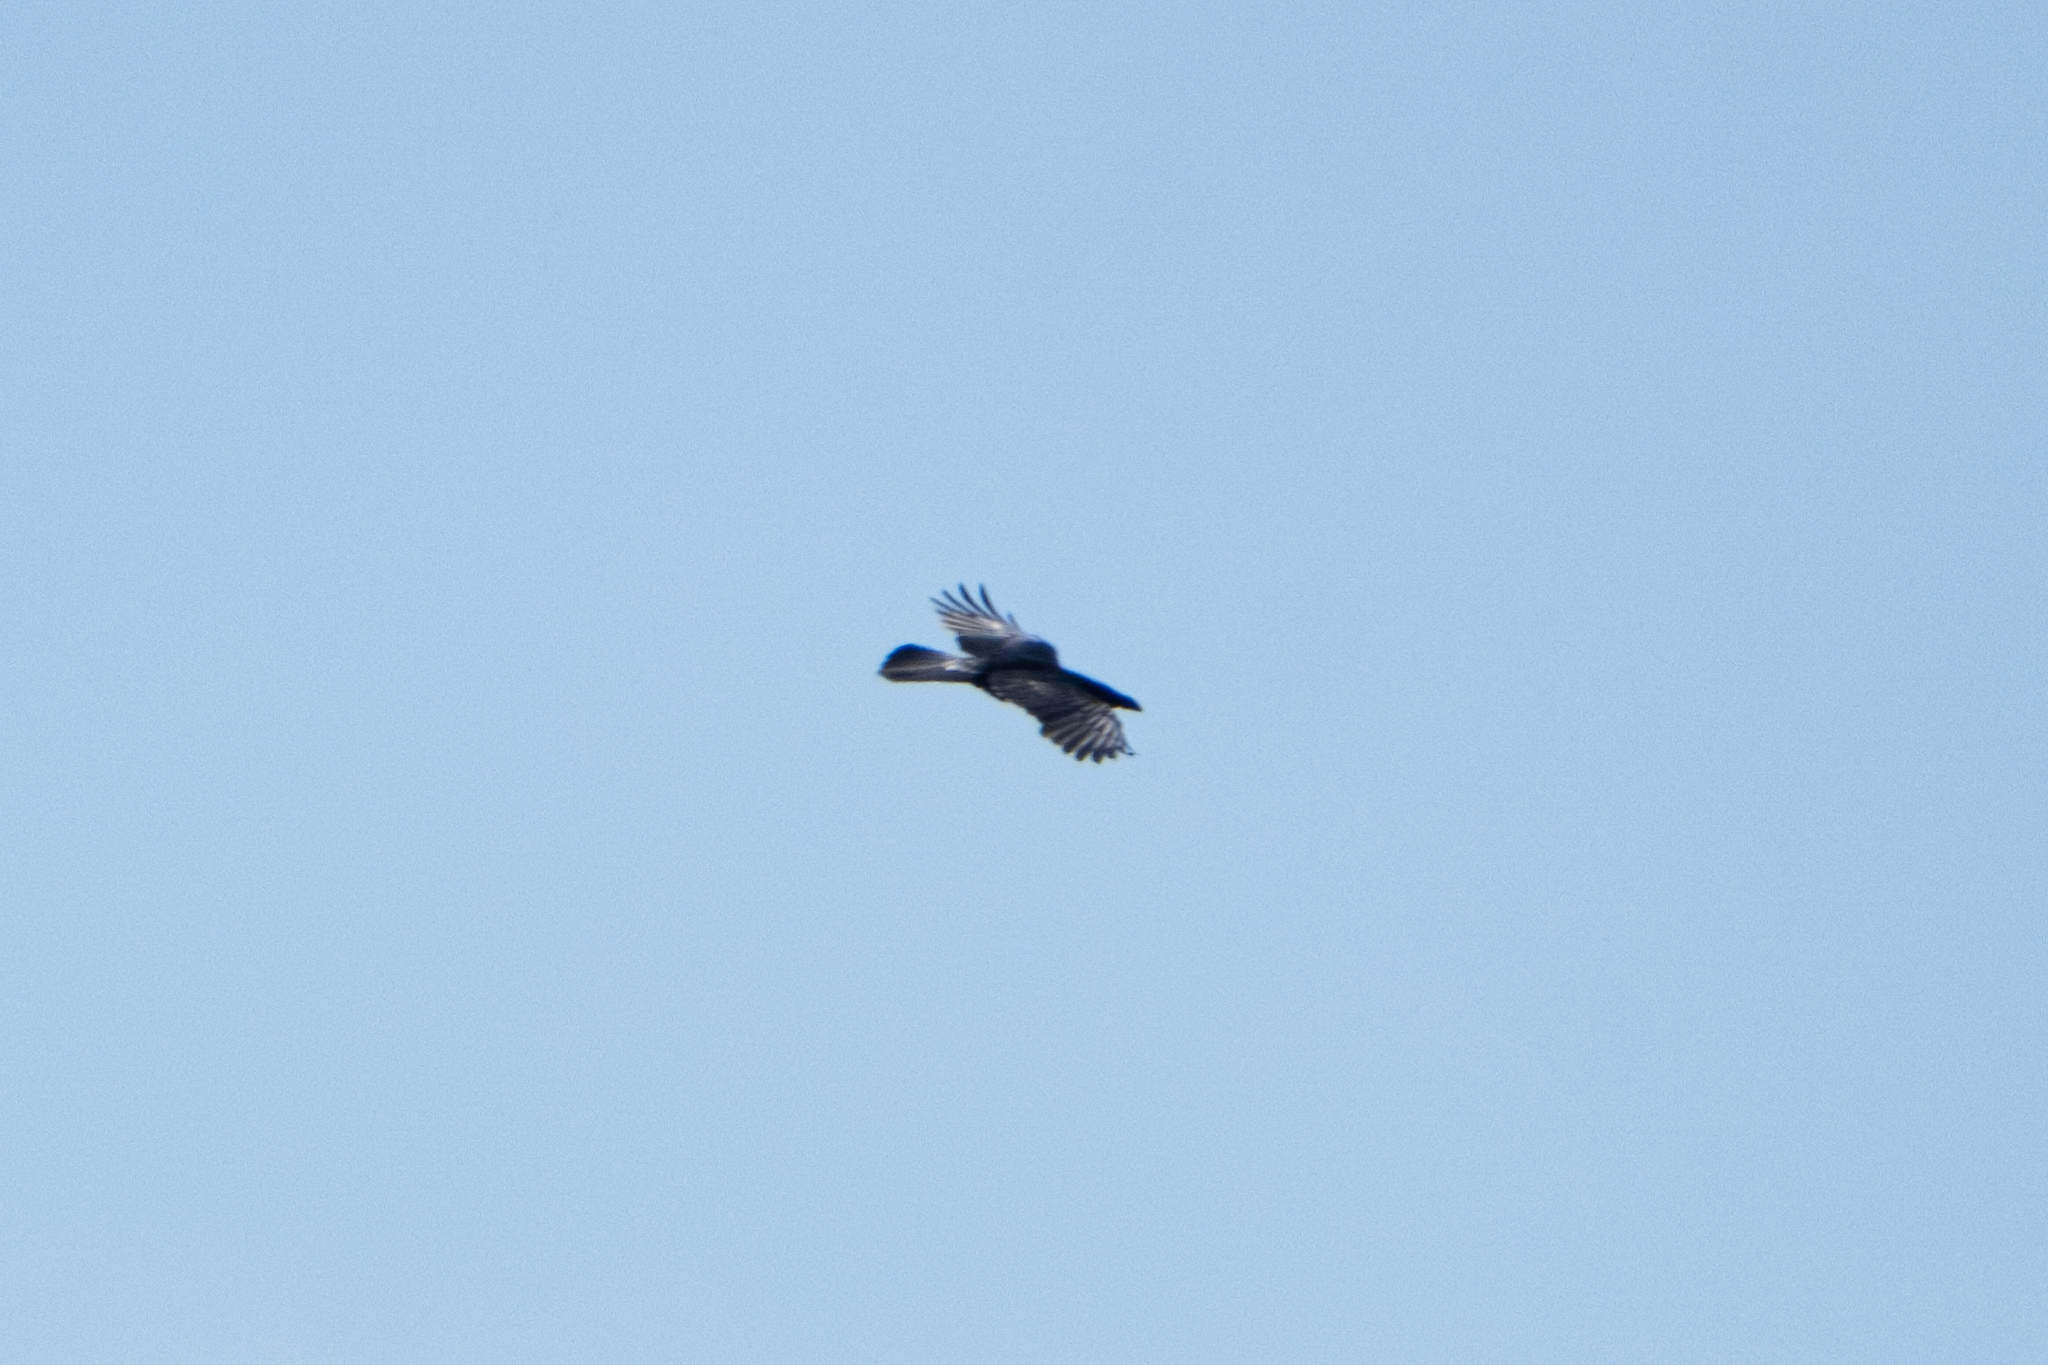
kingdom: Animalia
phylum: Chordata
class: Aves
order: Passeriformes
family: Corvidae
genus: Corvus
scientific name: Corvus corax
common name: Common raven
